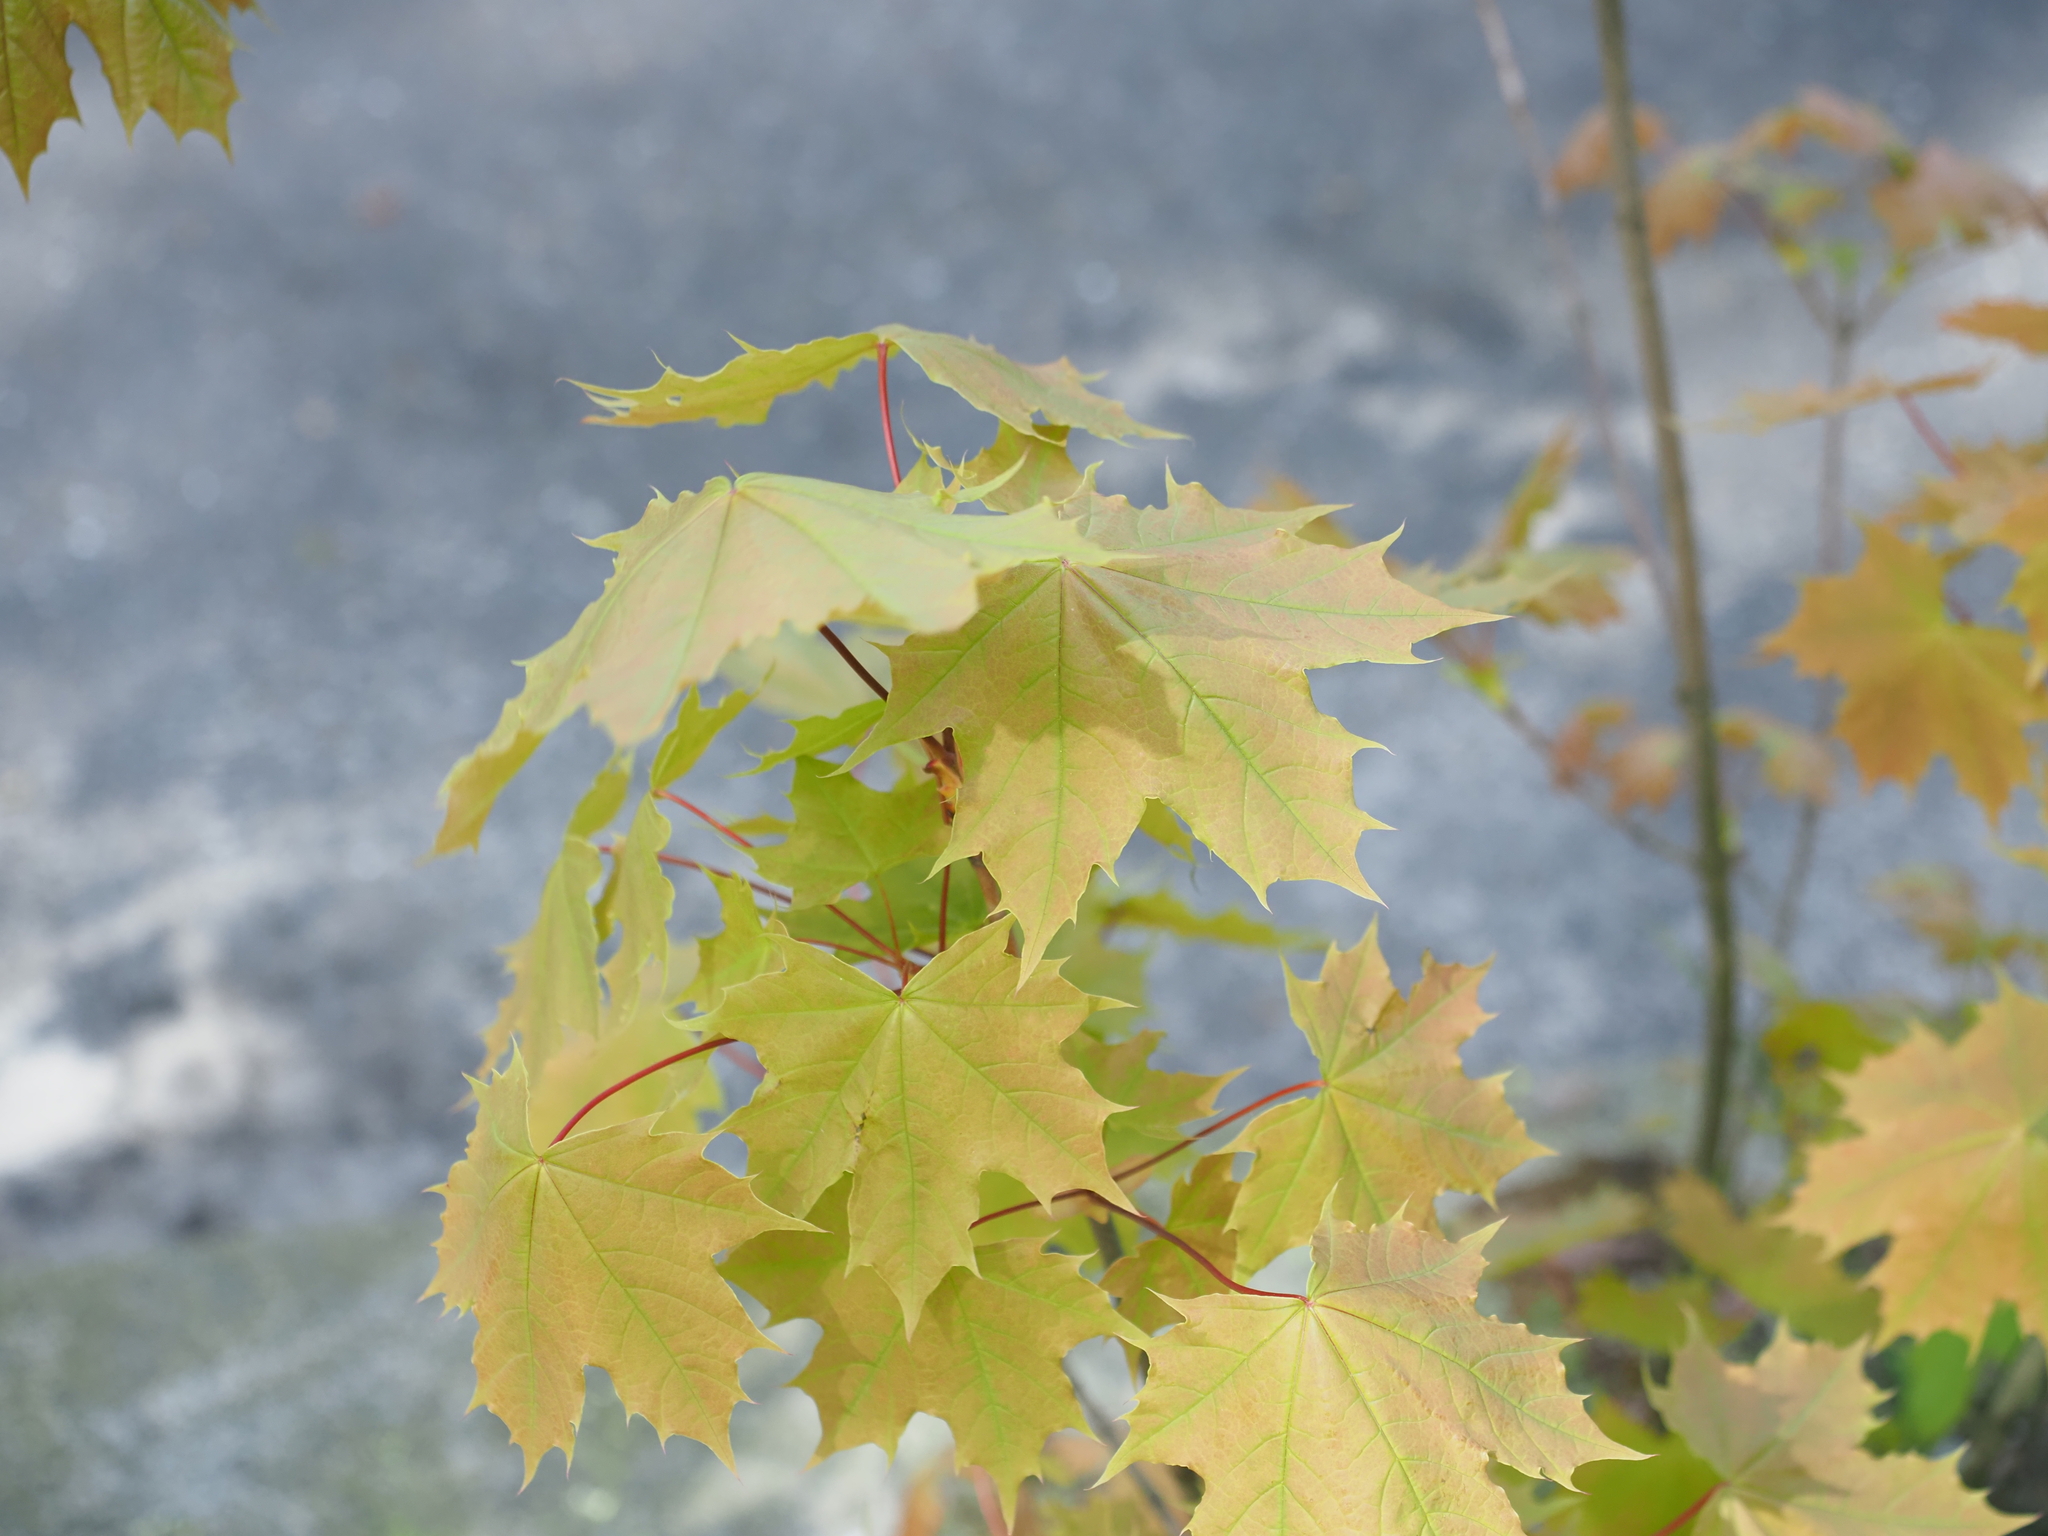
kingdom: Plantae
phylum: Tracheophyta
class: Magnoliopsida
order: Sapindales
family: Sapindaceae
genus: Acer
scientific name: Acer platanoides
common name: Norway maple
